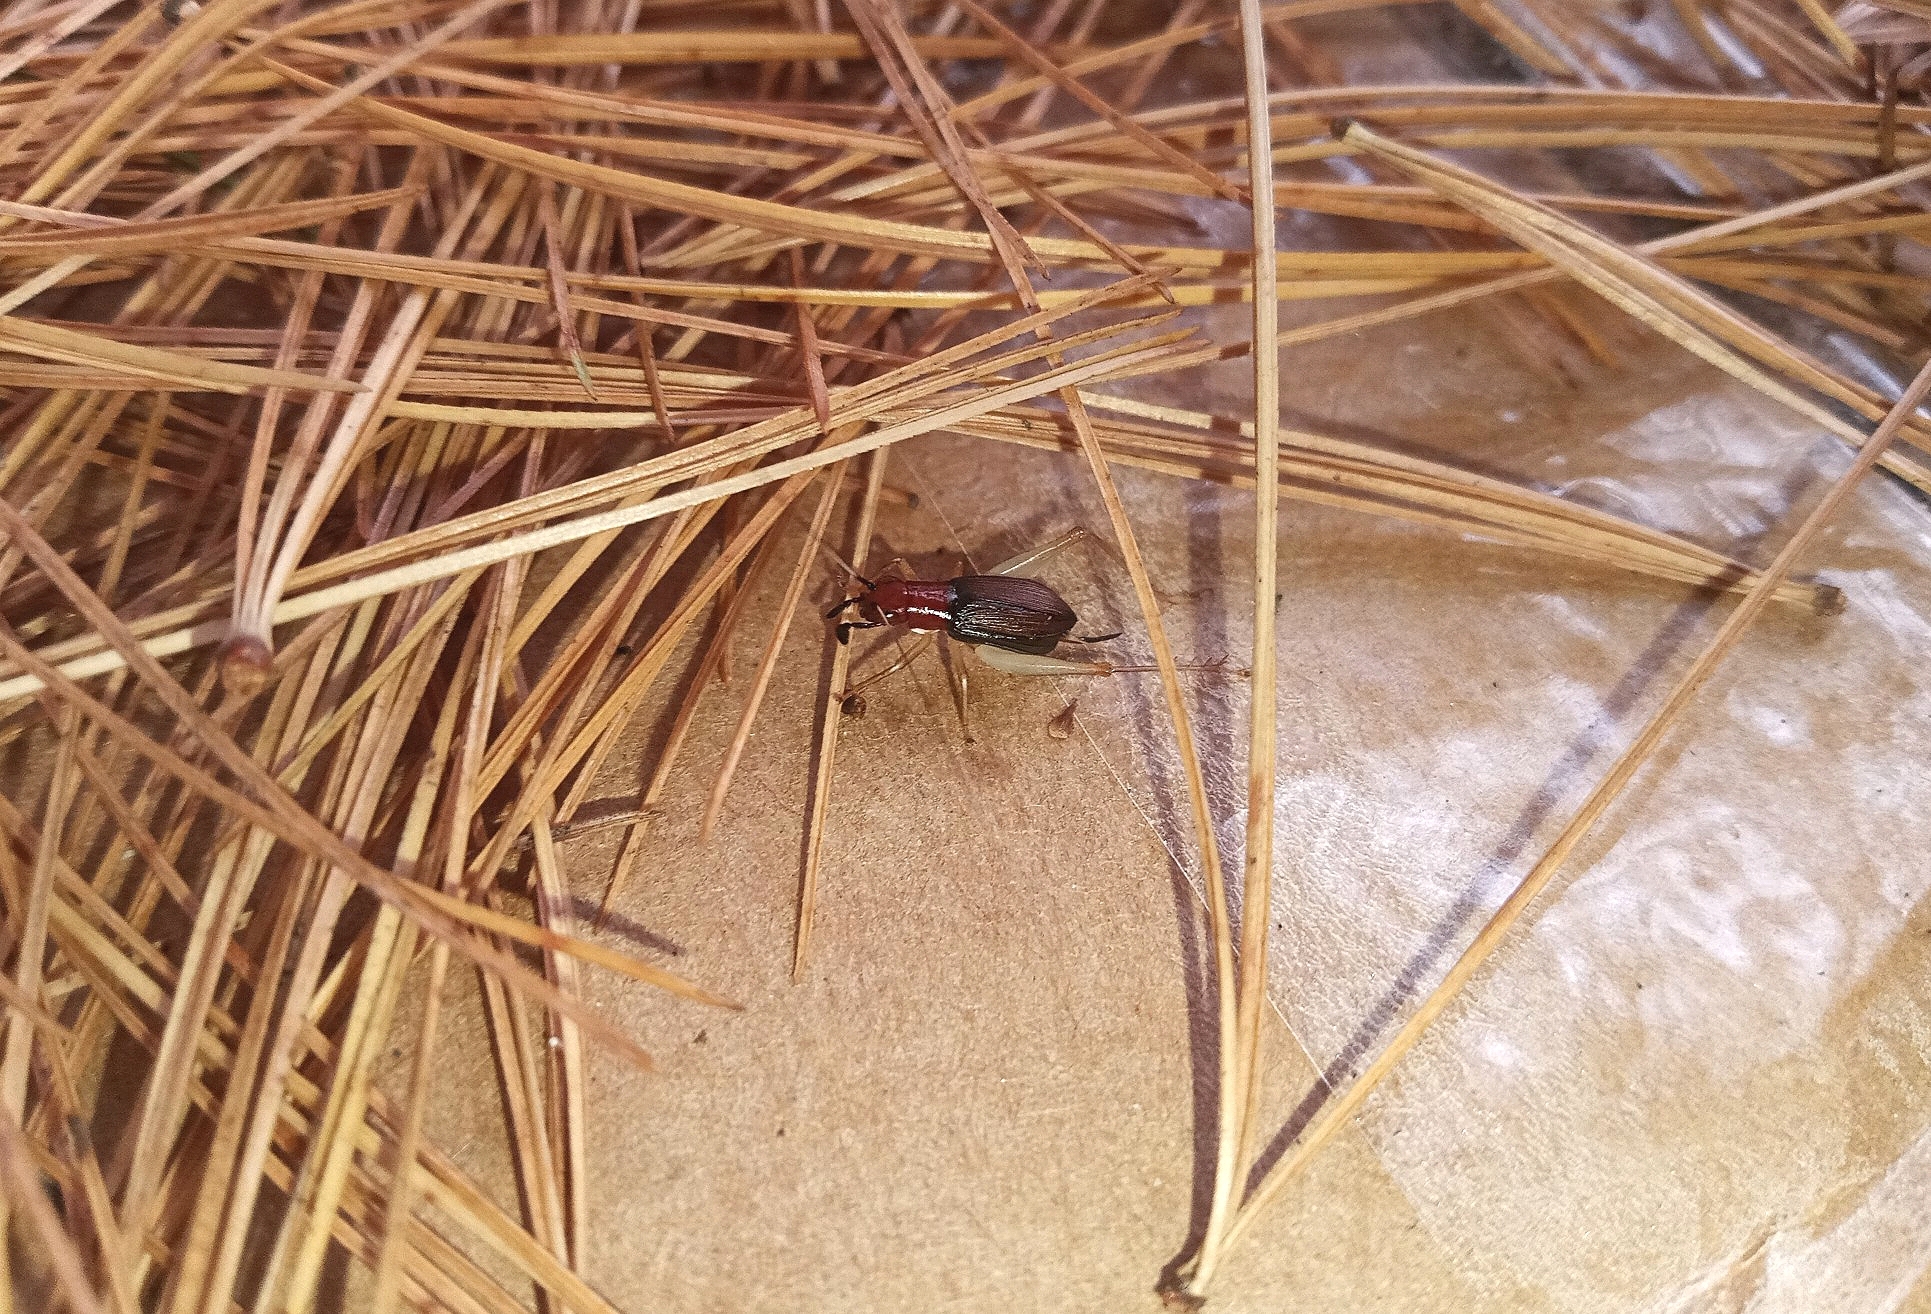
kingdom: Animalia
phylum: Arthropoda
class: Insecta
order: Orthoptera
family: Trigonidiidae
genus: Phyllopalpus
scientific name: Phyllopalpus pulchellus
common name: Handsome trig
